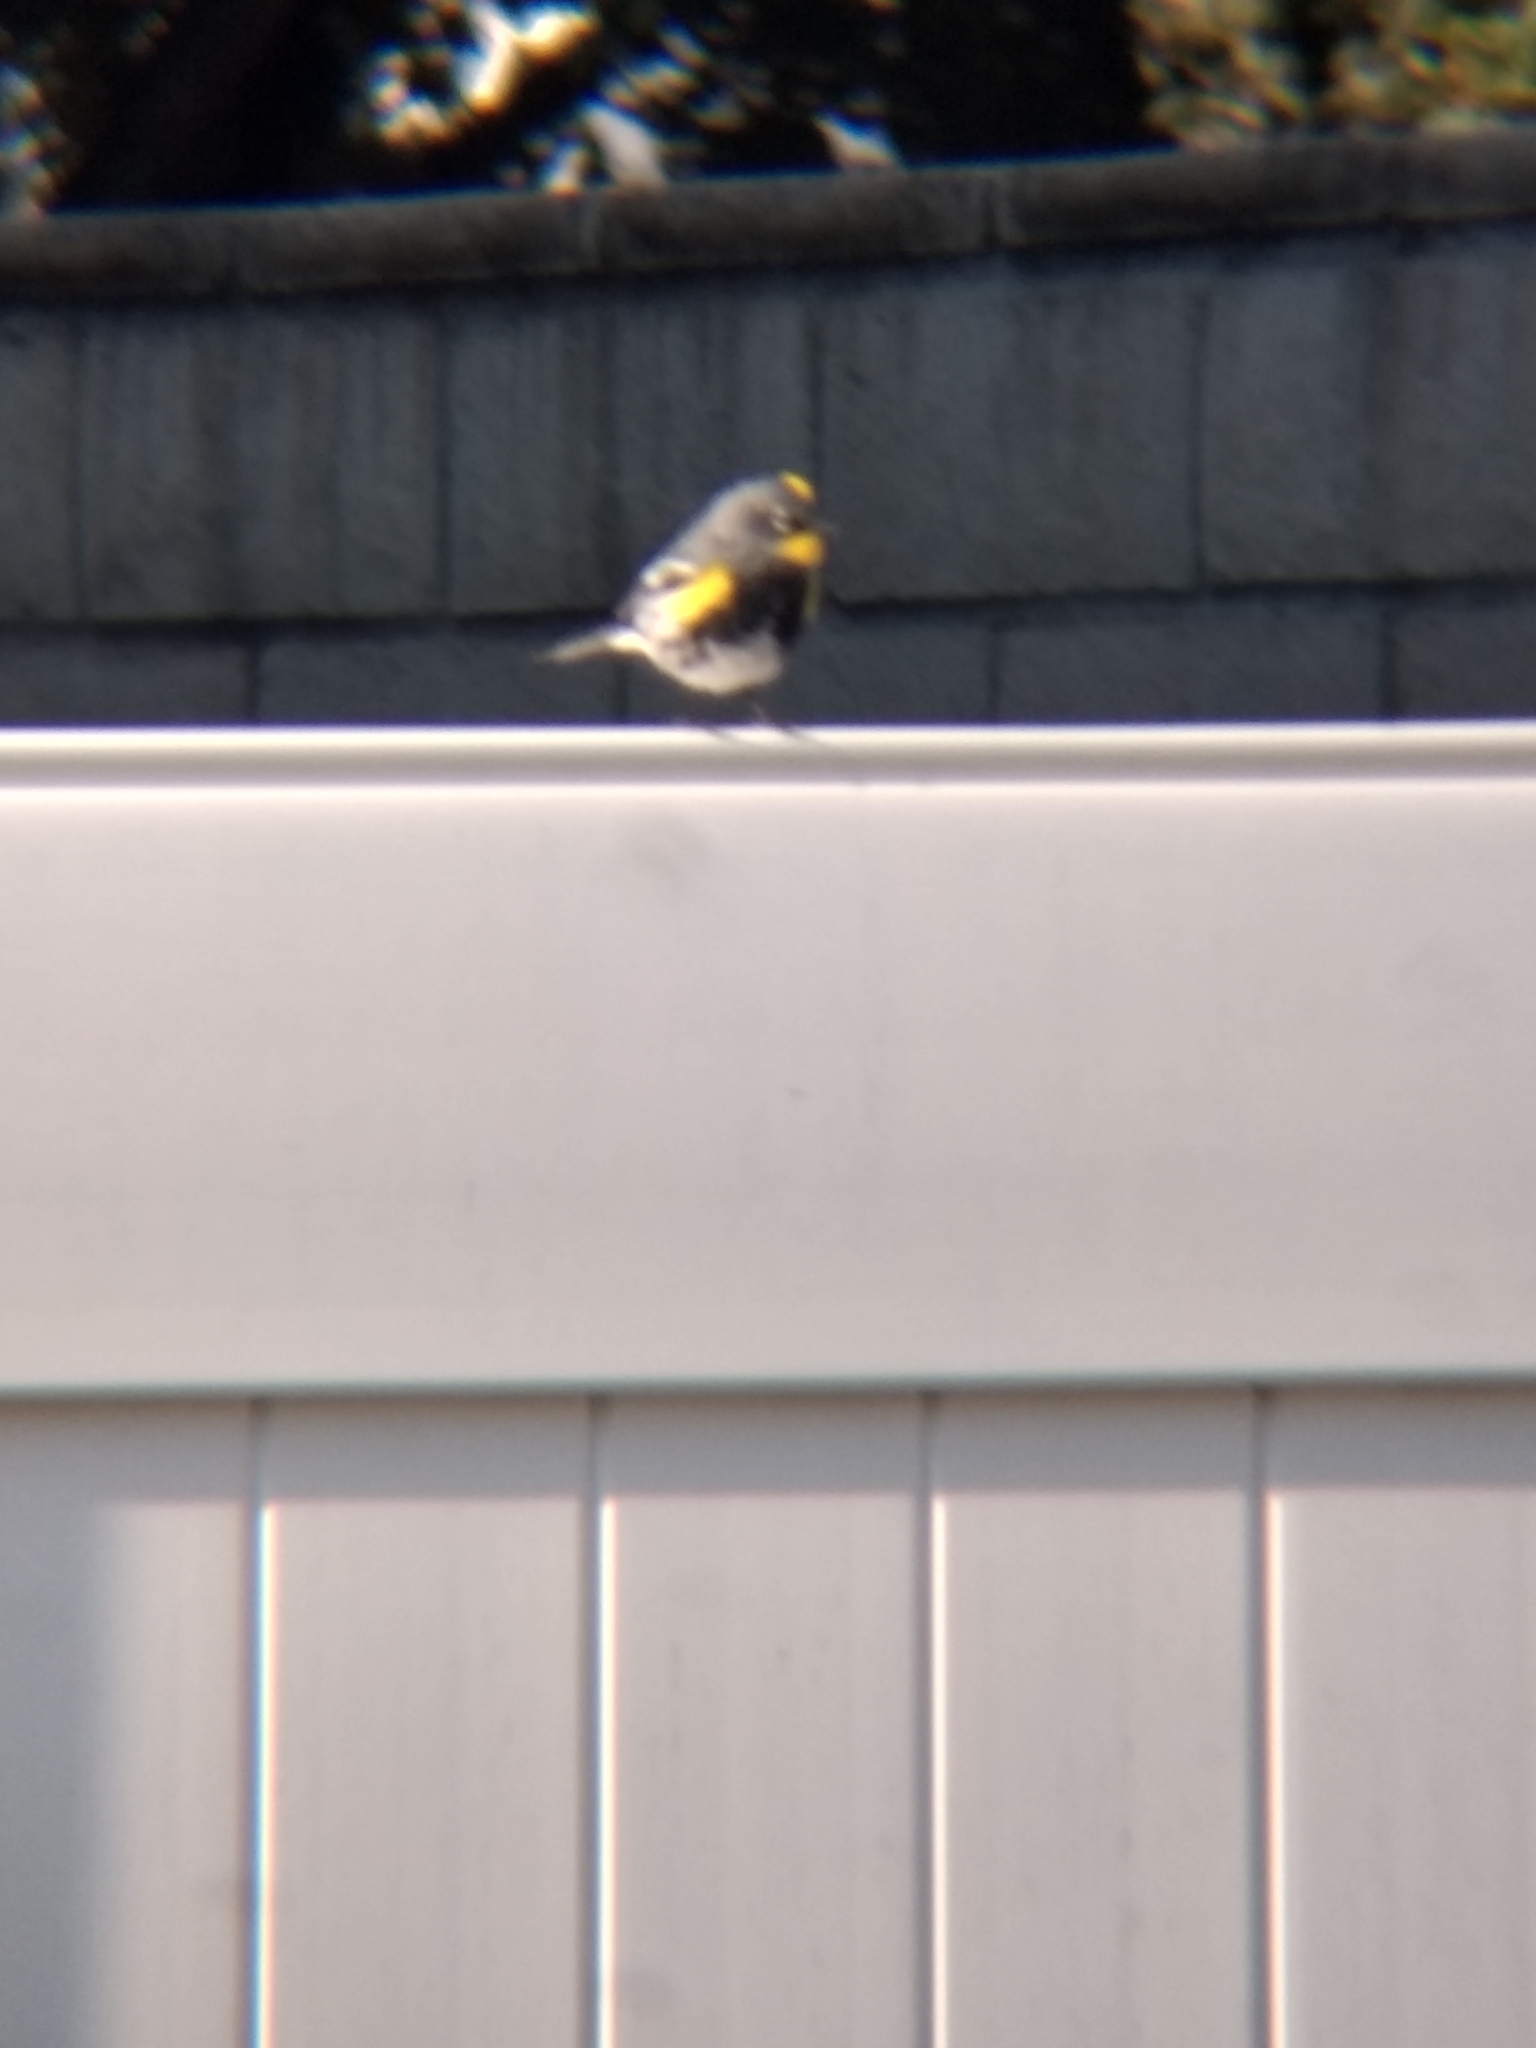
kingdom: Animalia
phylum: Chordata
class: Aves
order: Passeriformes
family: Parulidae
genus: Setophaga
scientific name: Setophaga coronata
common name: Myrtle warbler
